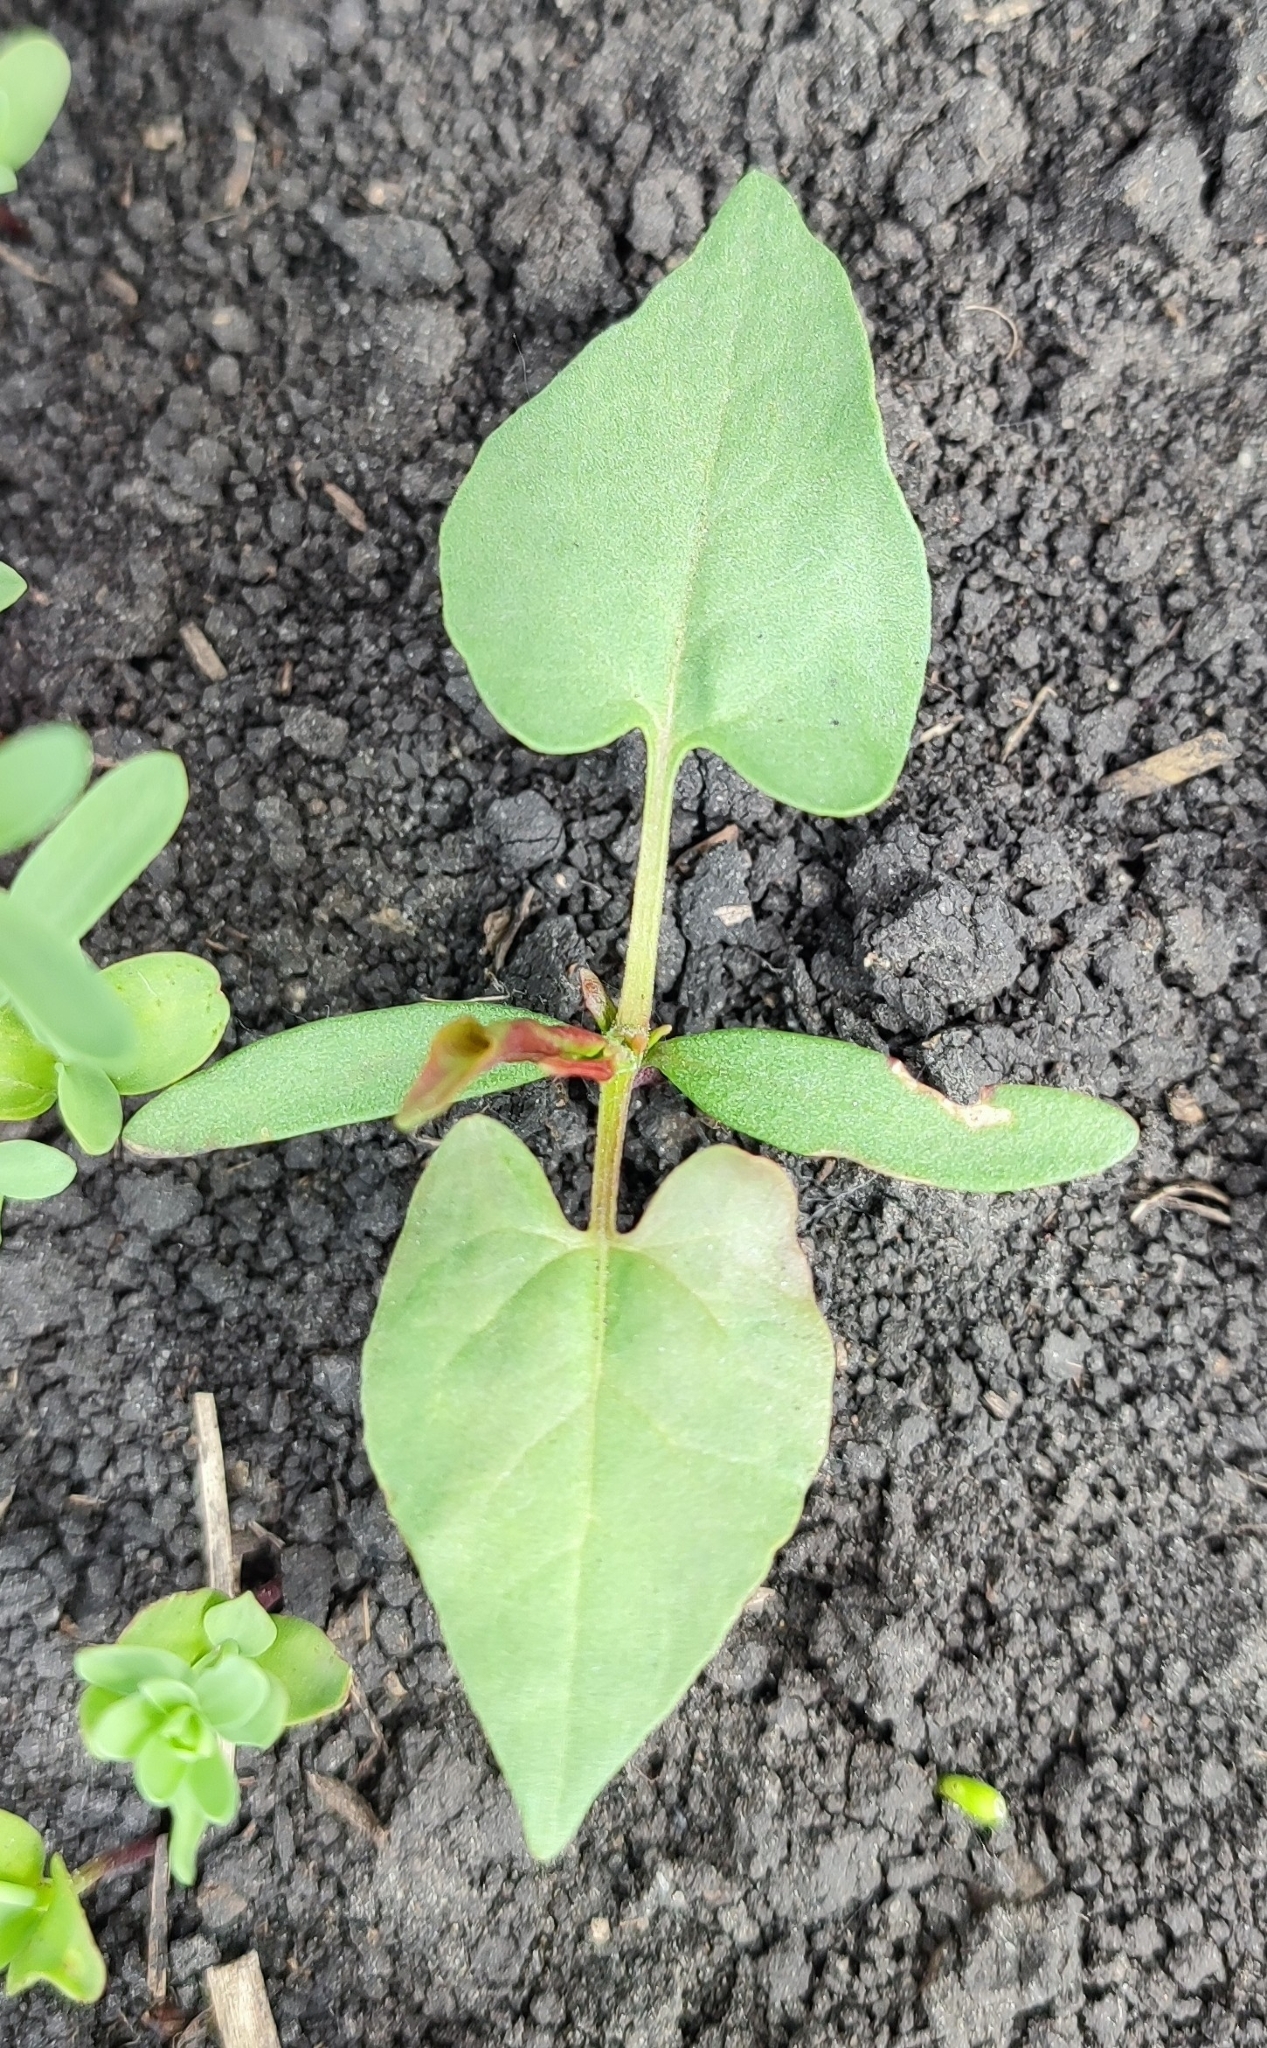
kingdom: Plantae
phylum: Tracheophyta
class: Magnoliopsida
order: Caryophyllales
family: Polygonaceae
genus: Fallopia
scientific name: Fallopia convolvulus
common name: Black bindweed
